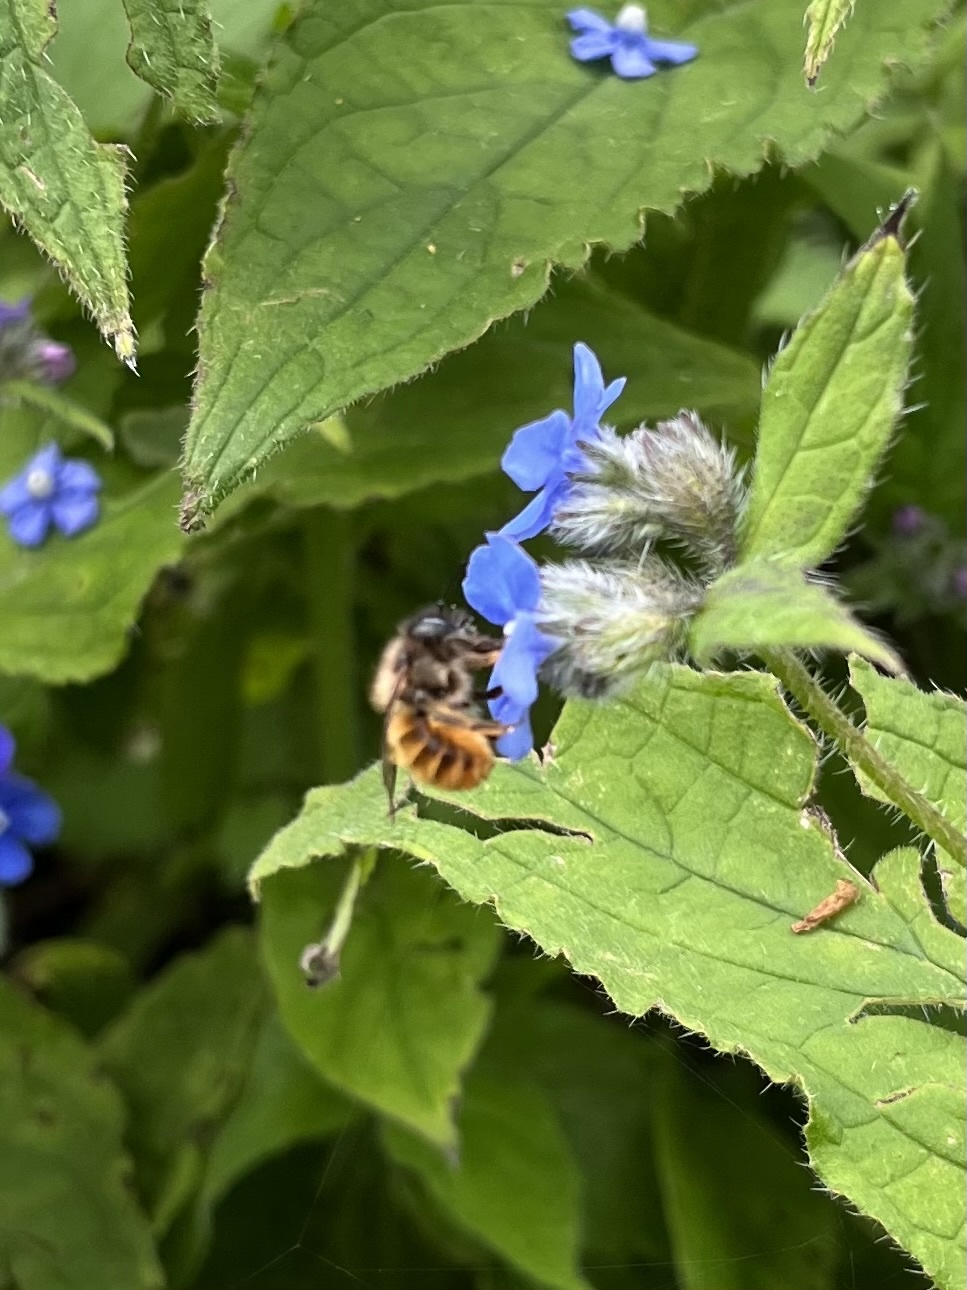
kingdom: Animalia
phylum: Arthropoda
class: Insecta
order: Hymenoptera
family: Megachilidae
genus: Osmia
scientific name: Osmia bicornis
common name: Red mason bee
